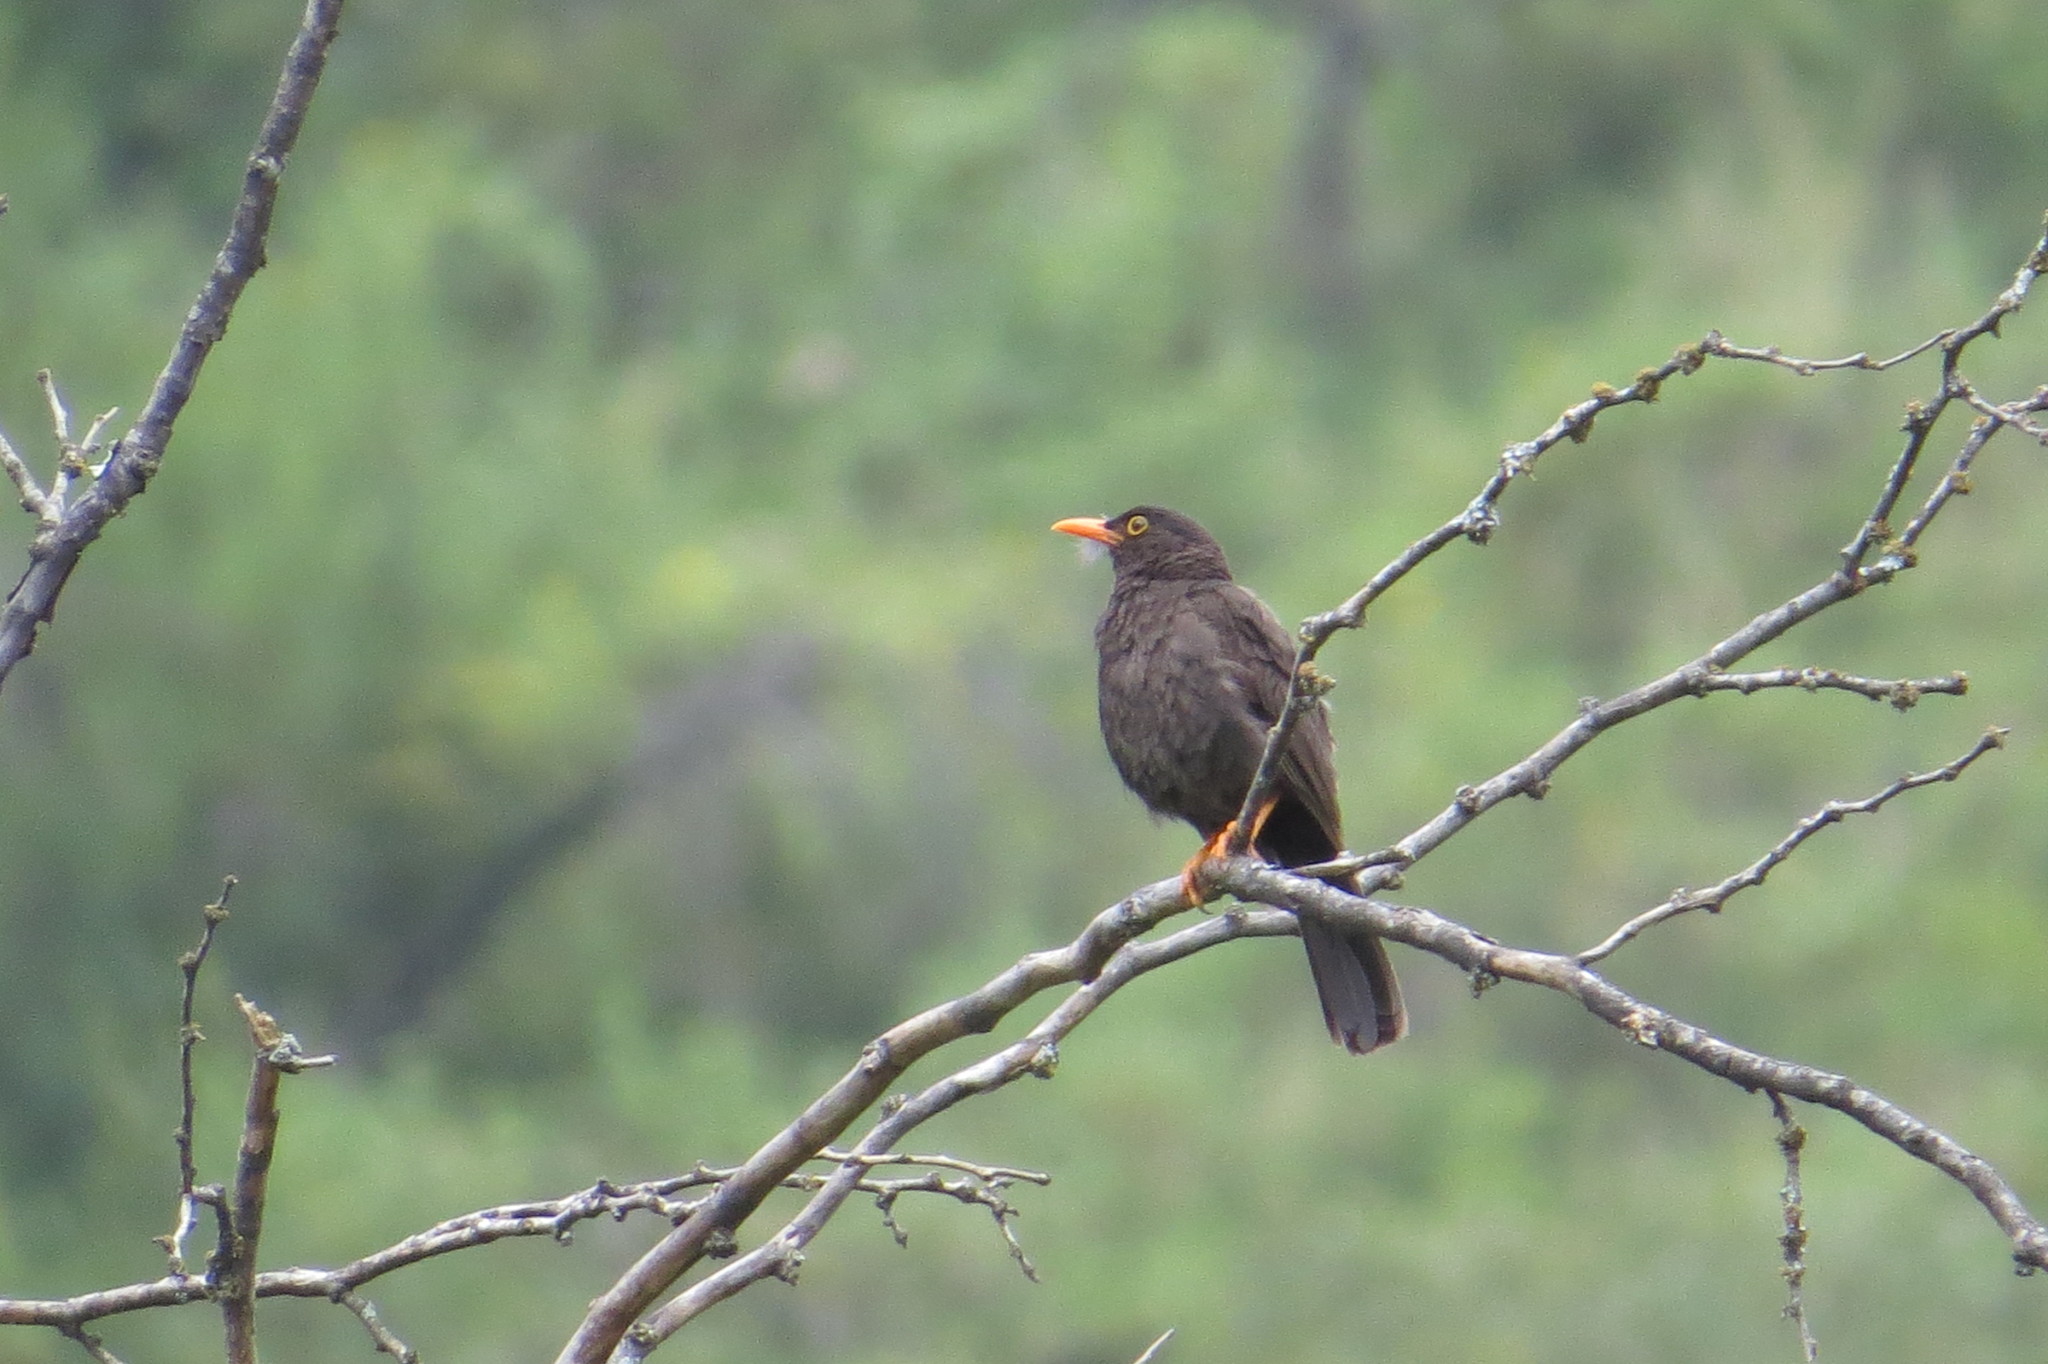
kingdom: Animalia
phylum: Chordata
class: Aves
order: Passeriformes
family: Turdidae
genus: Turdus
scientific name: Turdus chiguanco
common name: Chiguanco thrush
